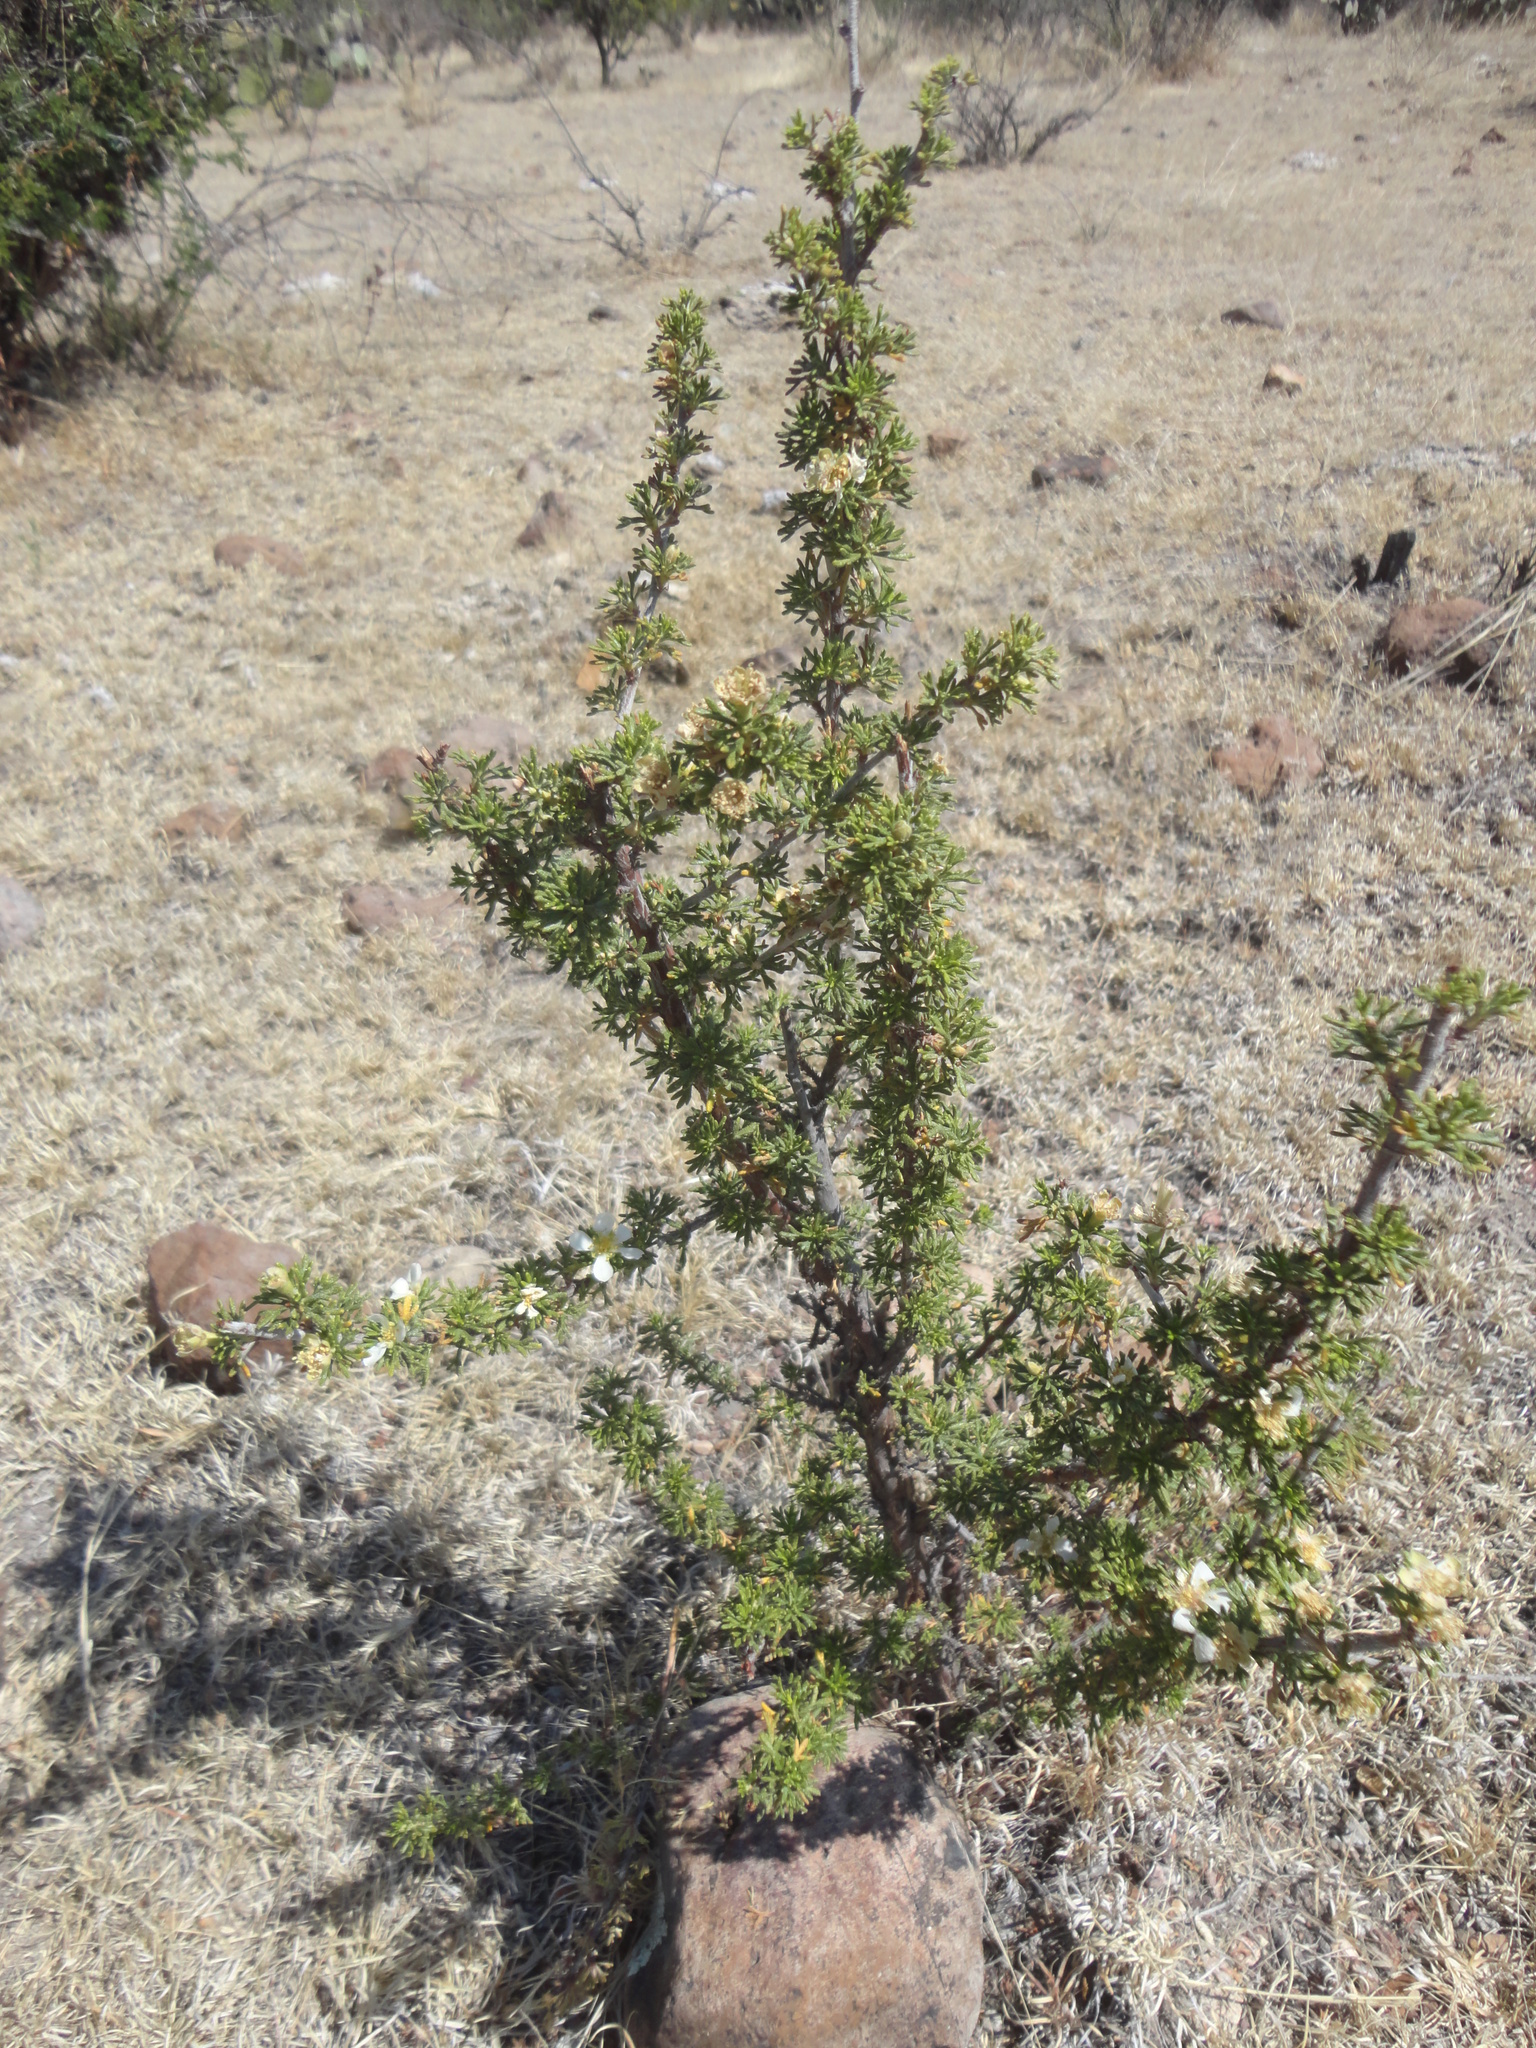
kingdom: Plantae
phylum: Tracheophyta
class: Magnoliopsida
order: Rosales
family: Rosaceae
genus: Purshia
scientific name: Purshia mexicana
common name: Mexican cliffrose
